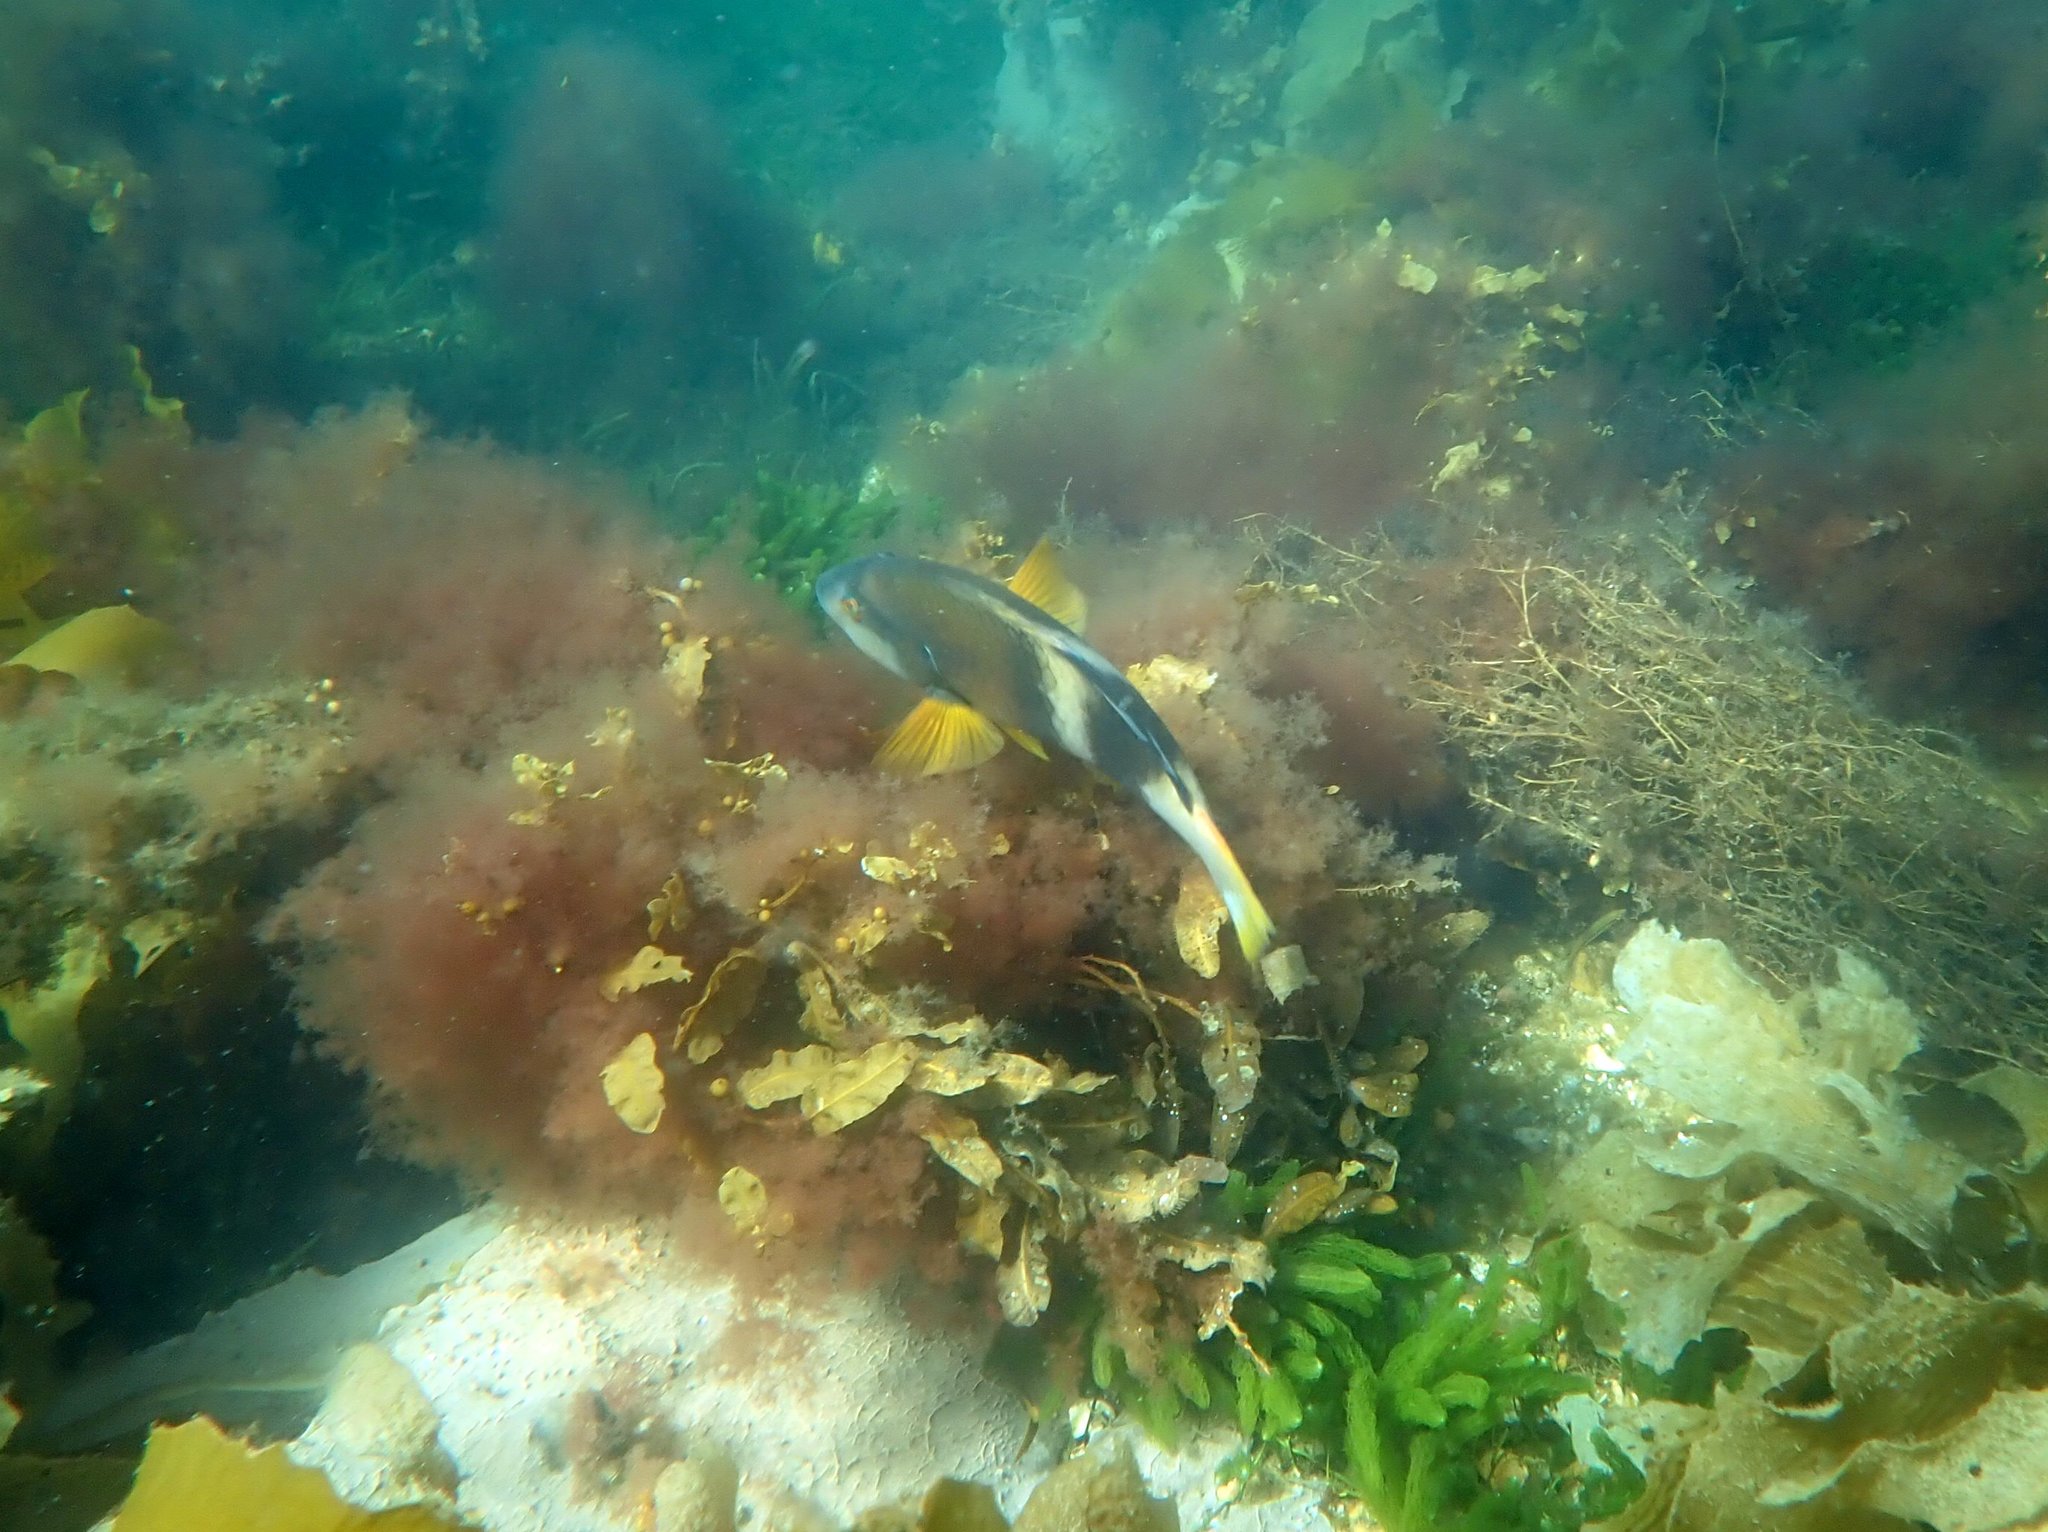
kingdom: Animalia
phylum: Chordata
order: Perciformes
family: Labridae
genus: Notolabrus
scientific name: Notolabrus tetricus
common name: Blue-throated parrotfish
